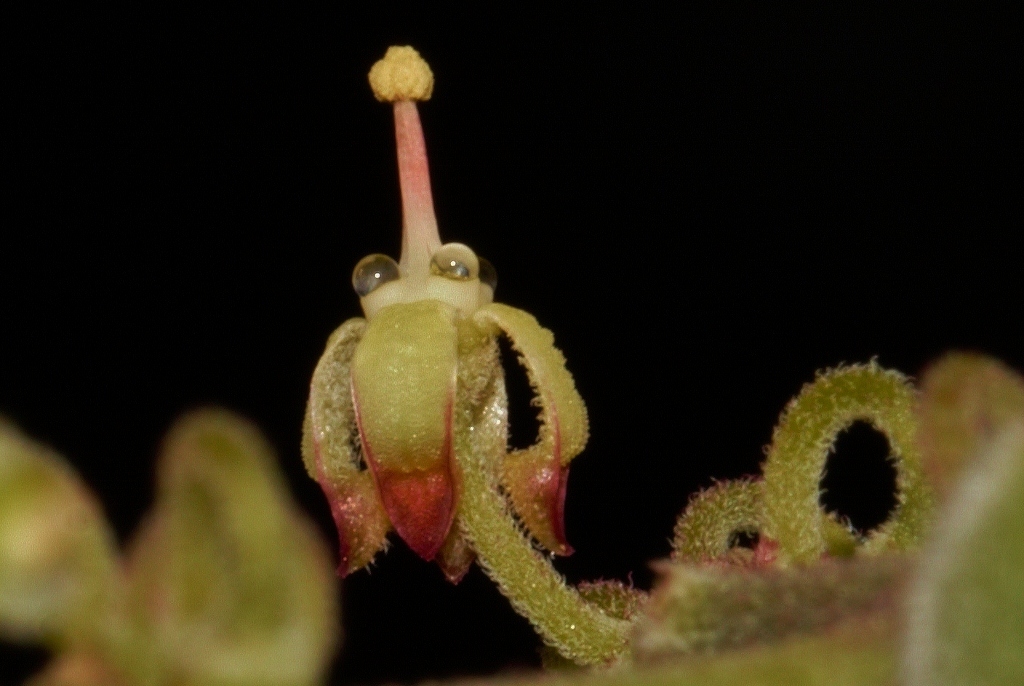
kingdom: Plantae
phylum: Tracheophyta
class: Magnoliopsida
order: Vitales
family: Vitaceae
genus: Cyphostemma
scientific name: Cyphostemma cirrhosum
